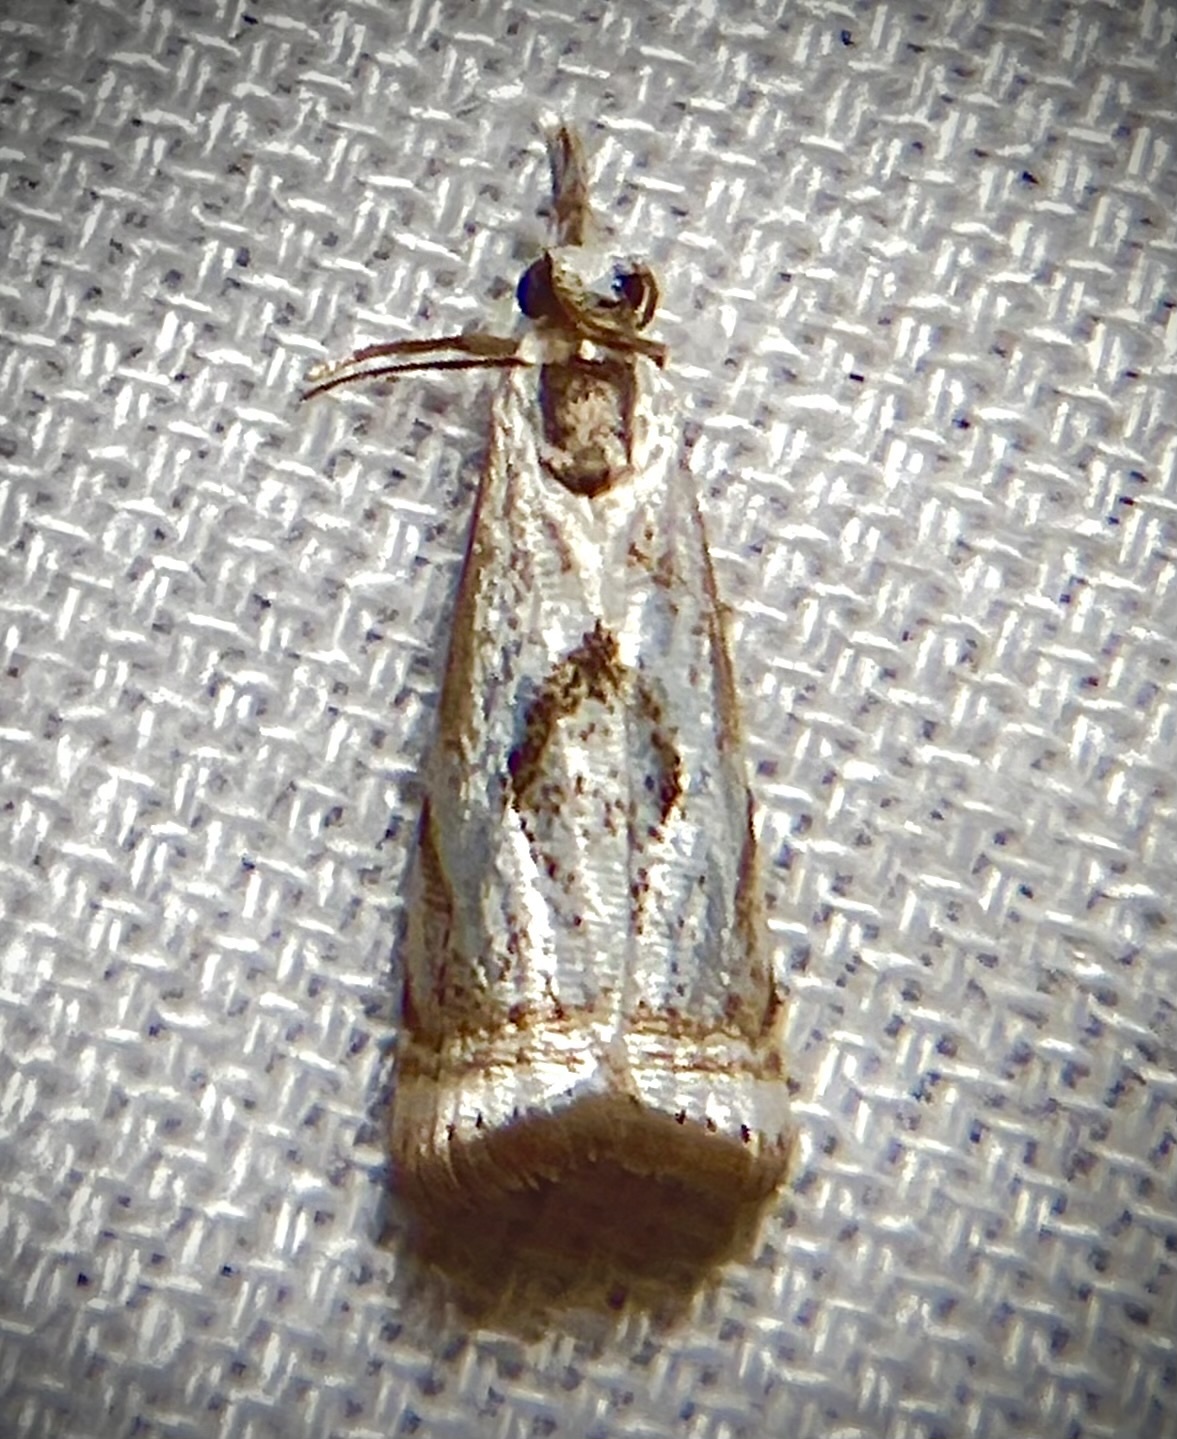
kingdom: Animalia
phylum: Arthropoda
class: Insecta
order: Lepidoptera
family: Crambidae
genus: Microcrambus
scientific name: Microcrambus elegans
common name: Elegant grass-veneer
